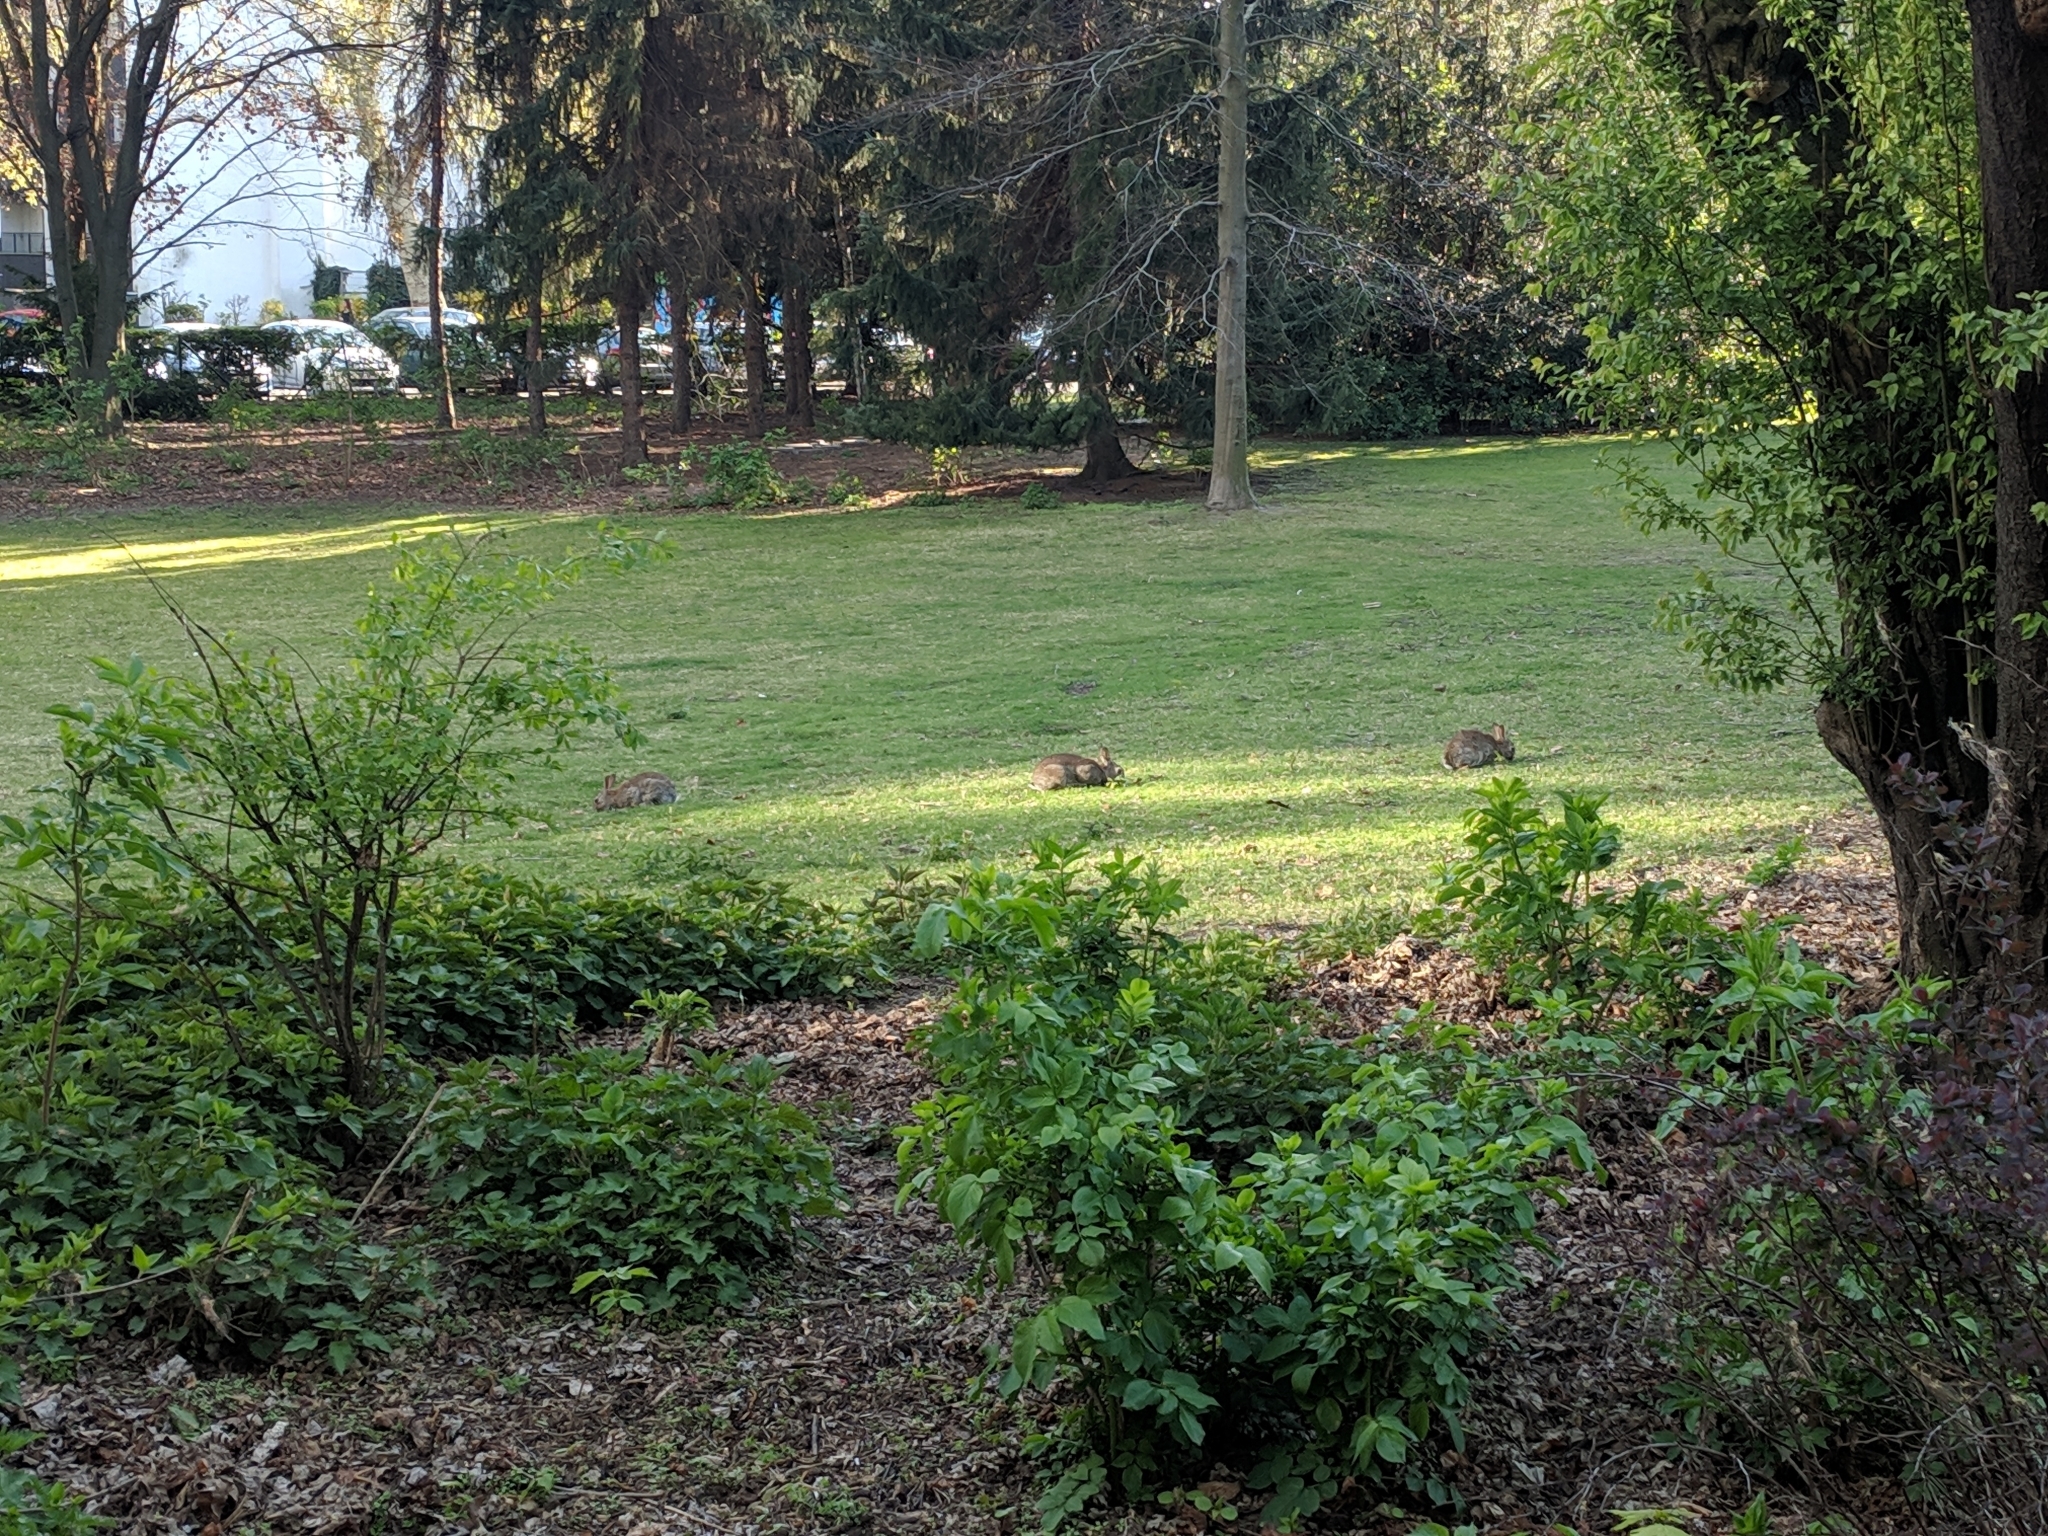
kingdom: Animalia
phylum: Chordata
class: Mammalia
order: Lagomorpha
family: Leporidae
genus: Oryctolagus
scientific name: Oryctolagus cuniculus
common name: European rabbit
